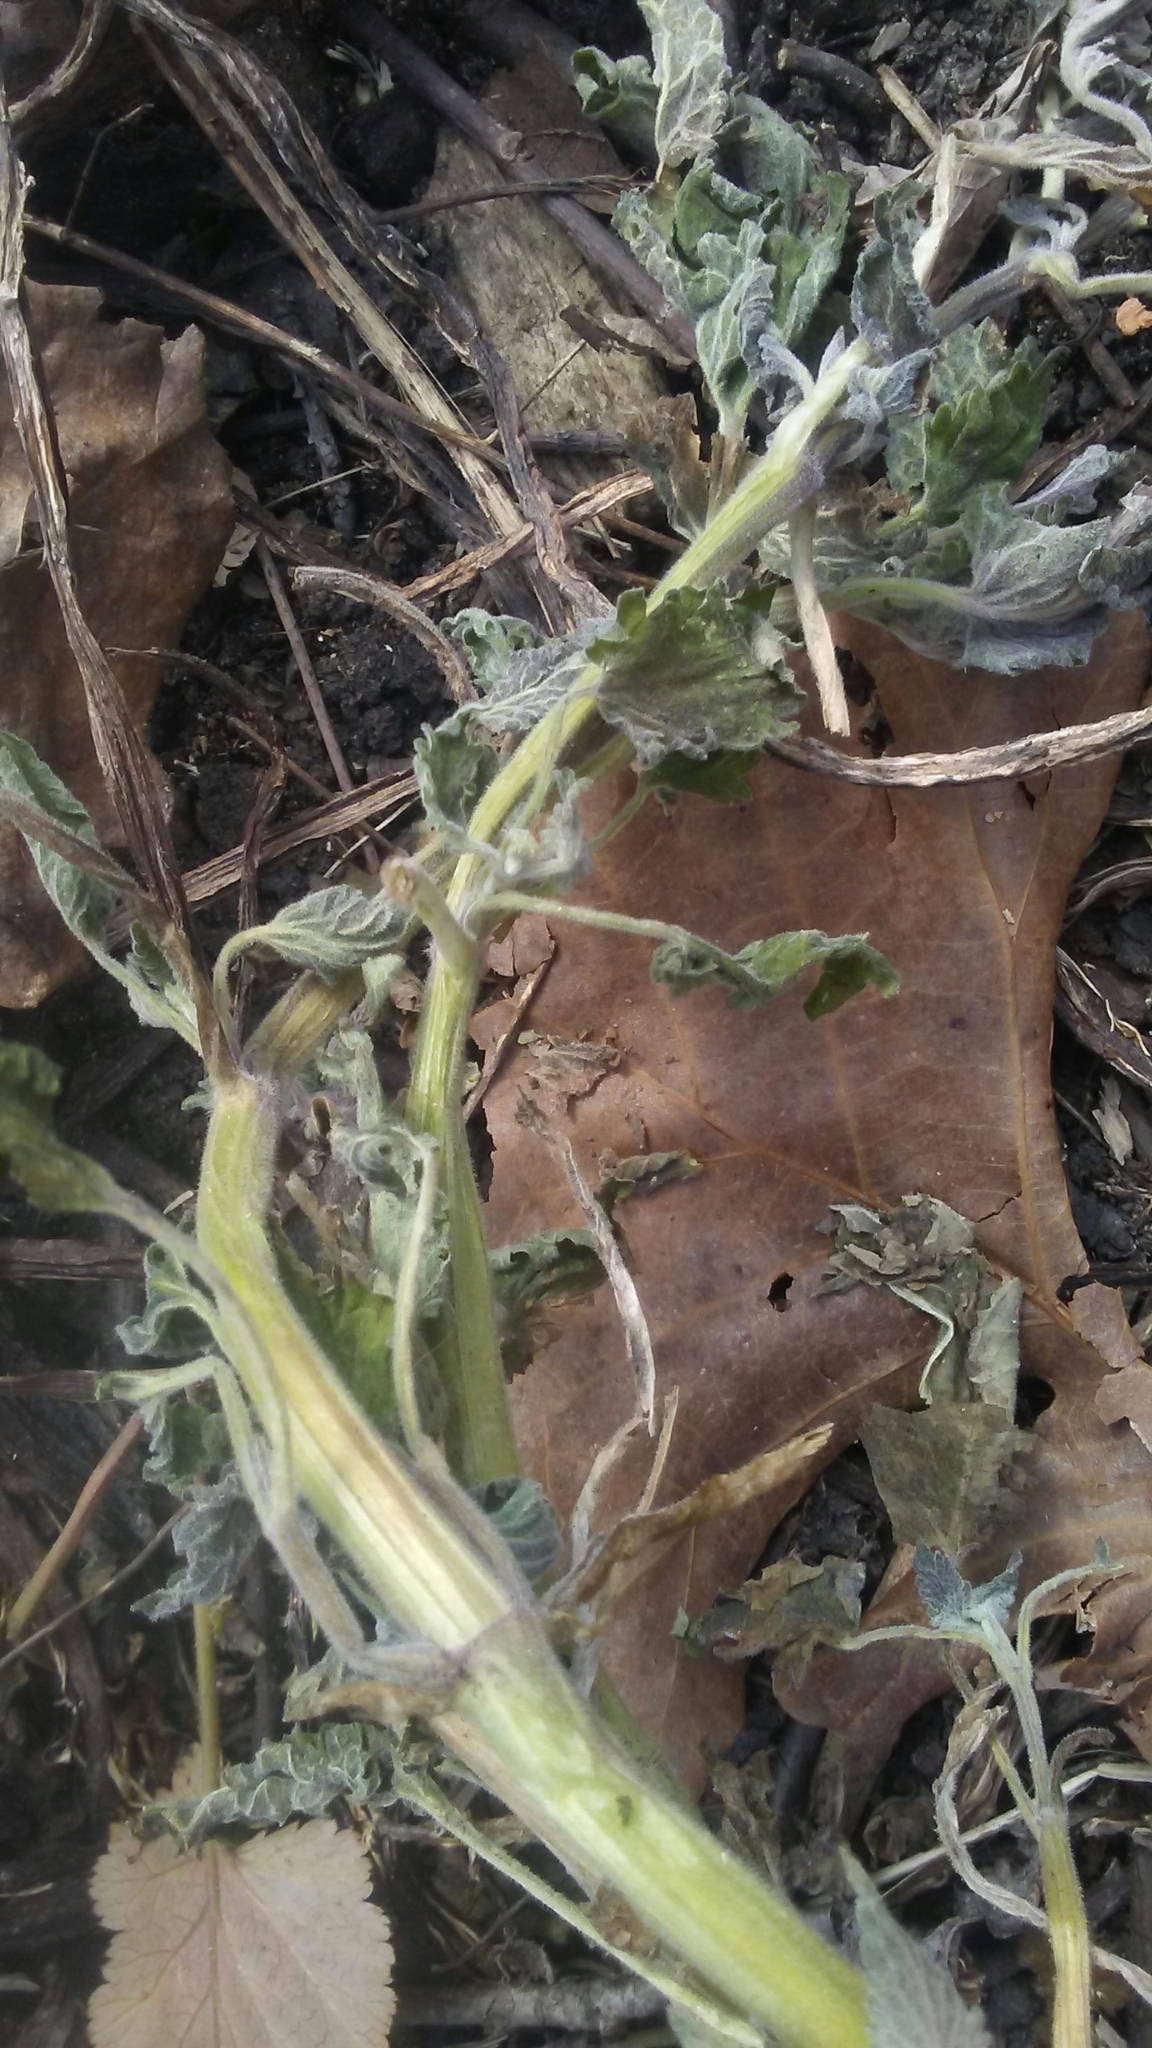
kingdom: Plantae
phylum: Tracheophyta
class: Magnoliopsida
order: Lamiales
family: Lamiaceae
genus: Nepeta
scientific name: Nepeta cataria
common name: Catnip
